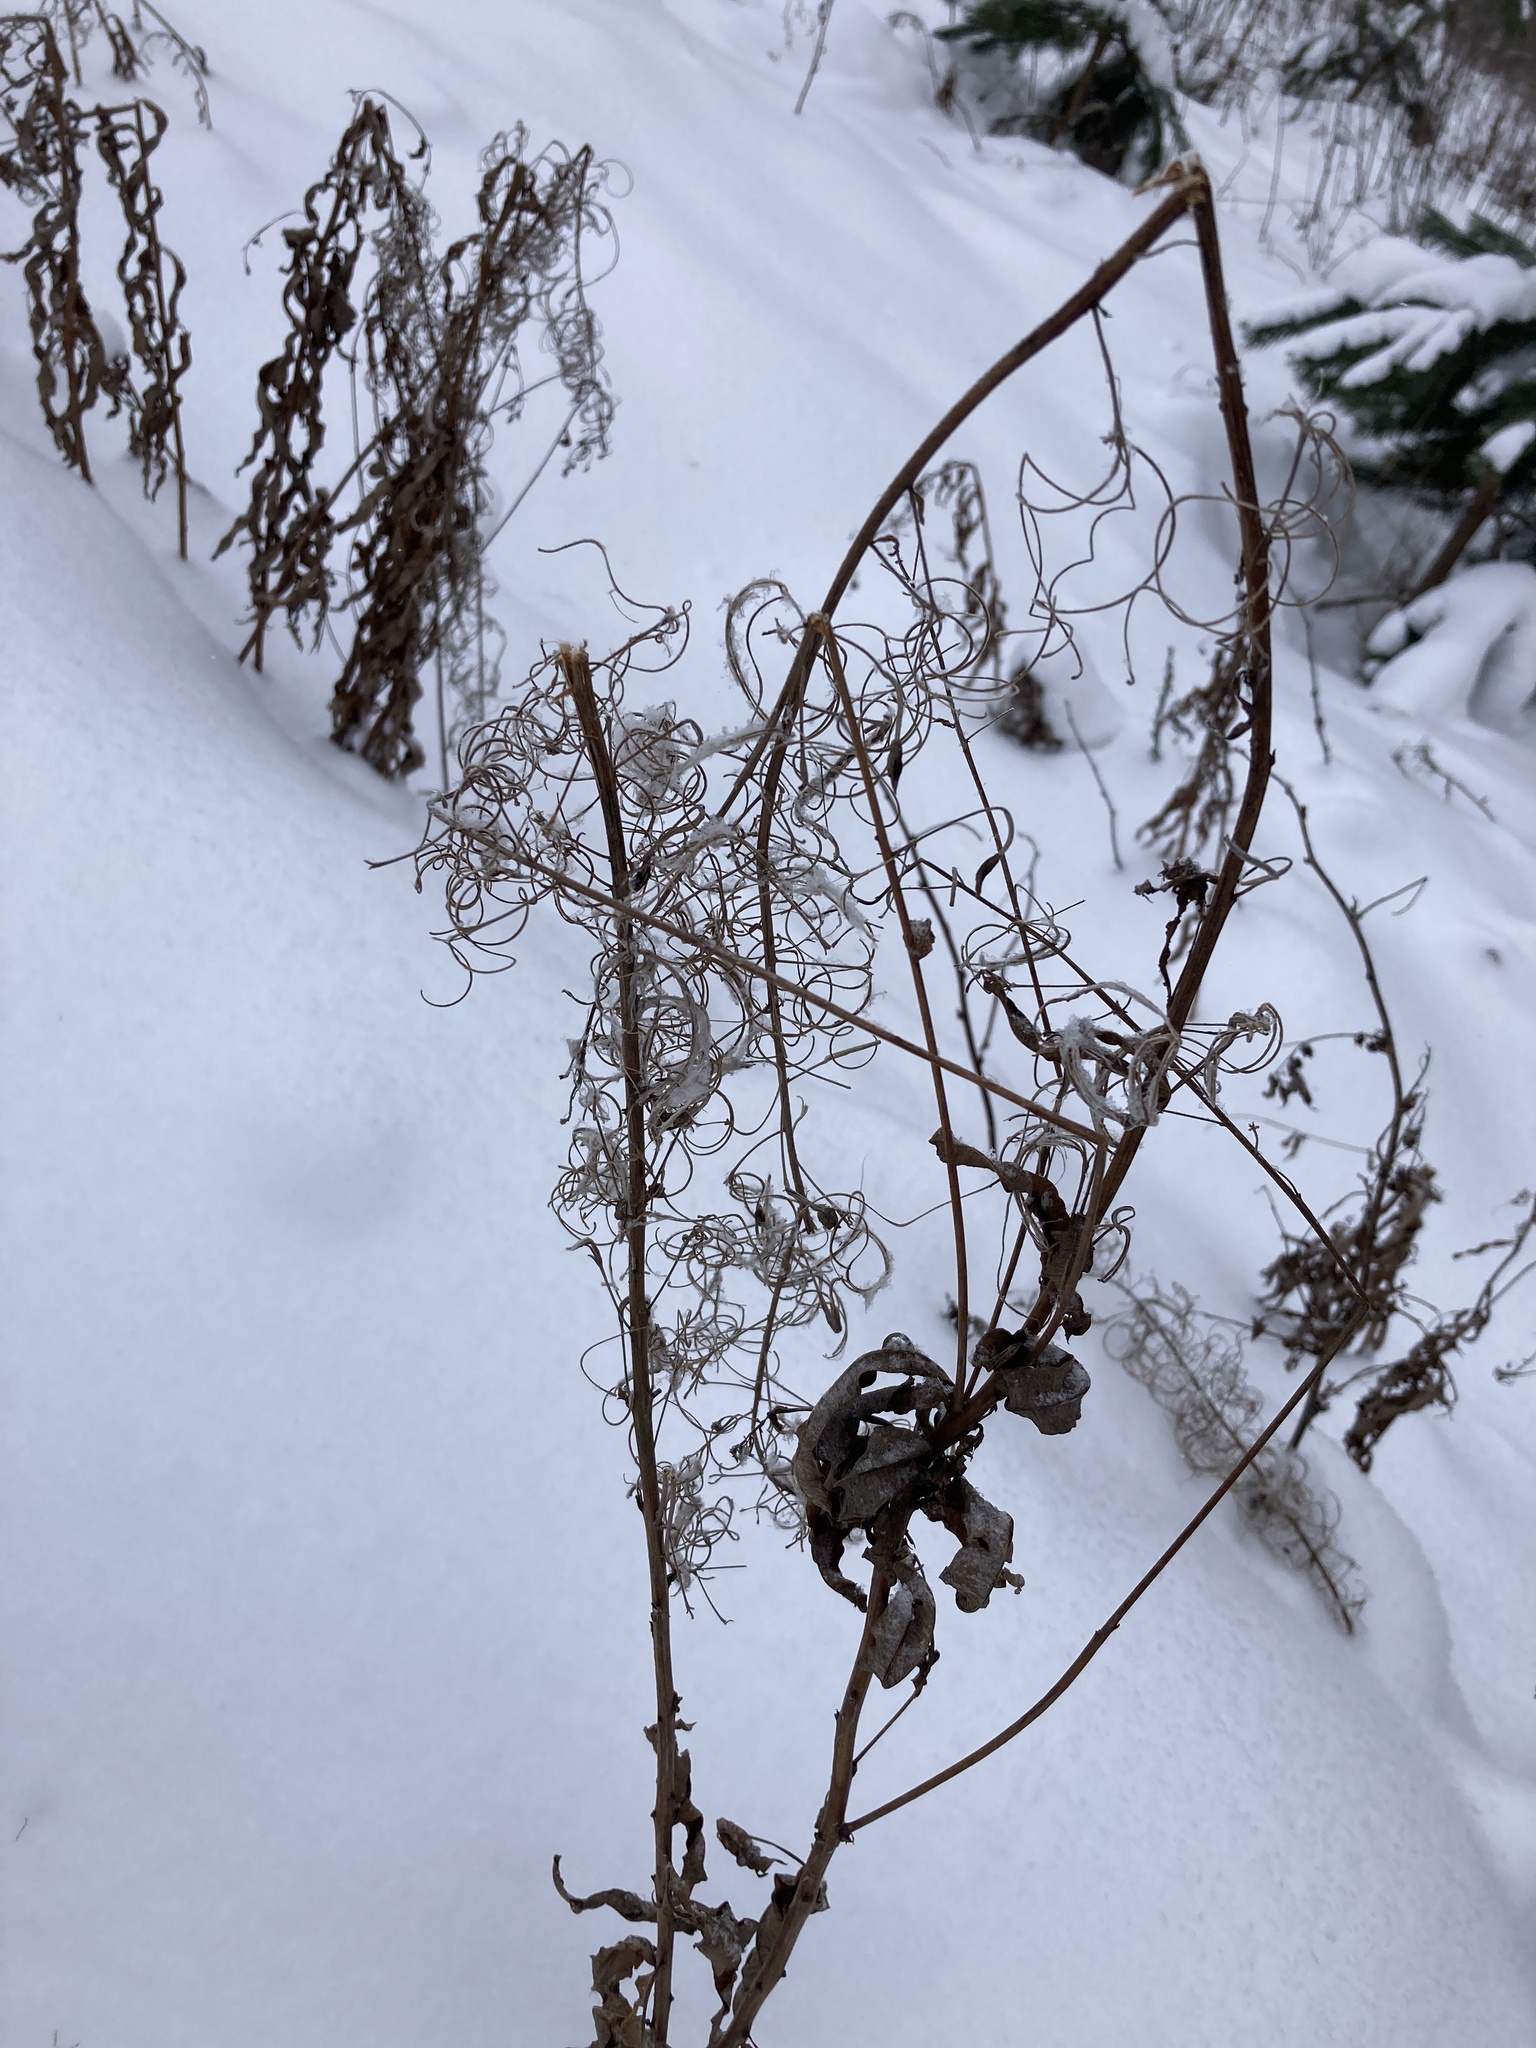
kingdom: Plantae
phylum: Tracheophyta
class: Magnoliopsida
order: Myrtales
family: Onagraceae
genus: Chamaenerion
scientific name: Chamaenerion angustifolium
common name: Fireweed
